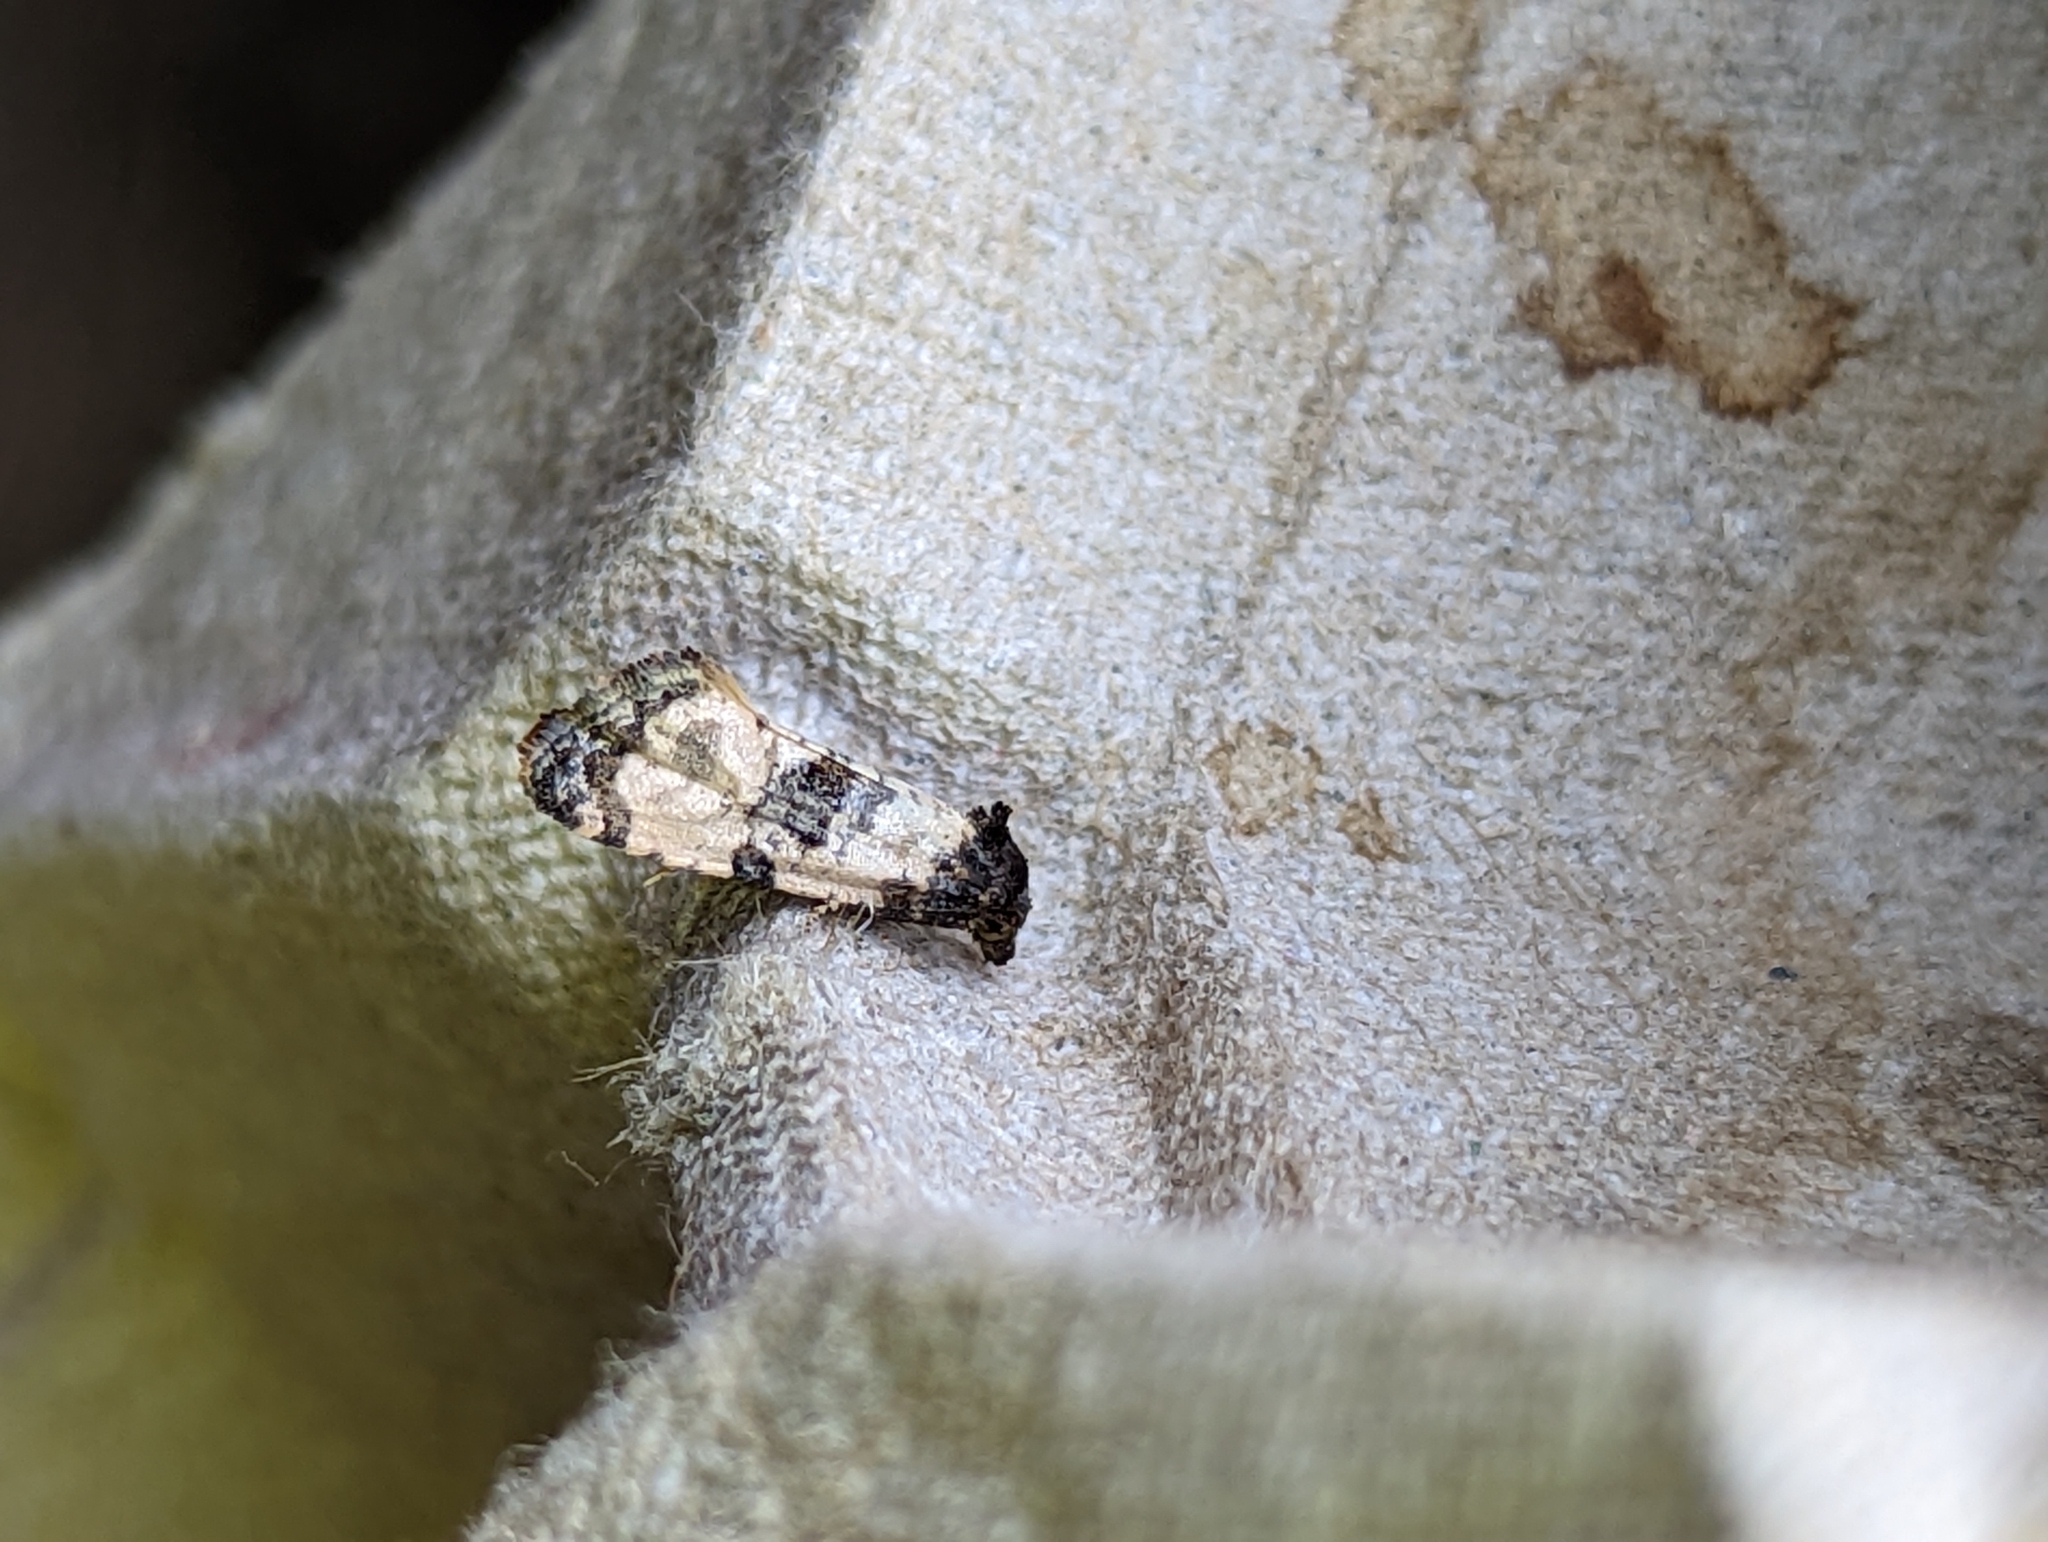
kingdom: Animalia
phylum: Arthropoda
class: Insecta
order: Lepidoptera
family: Tortricidae
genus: Cochylis
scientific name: Cochylis atricapitana
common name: Tortricid moth
